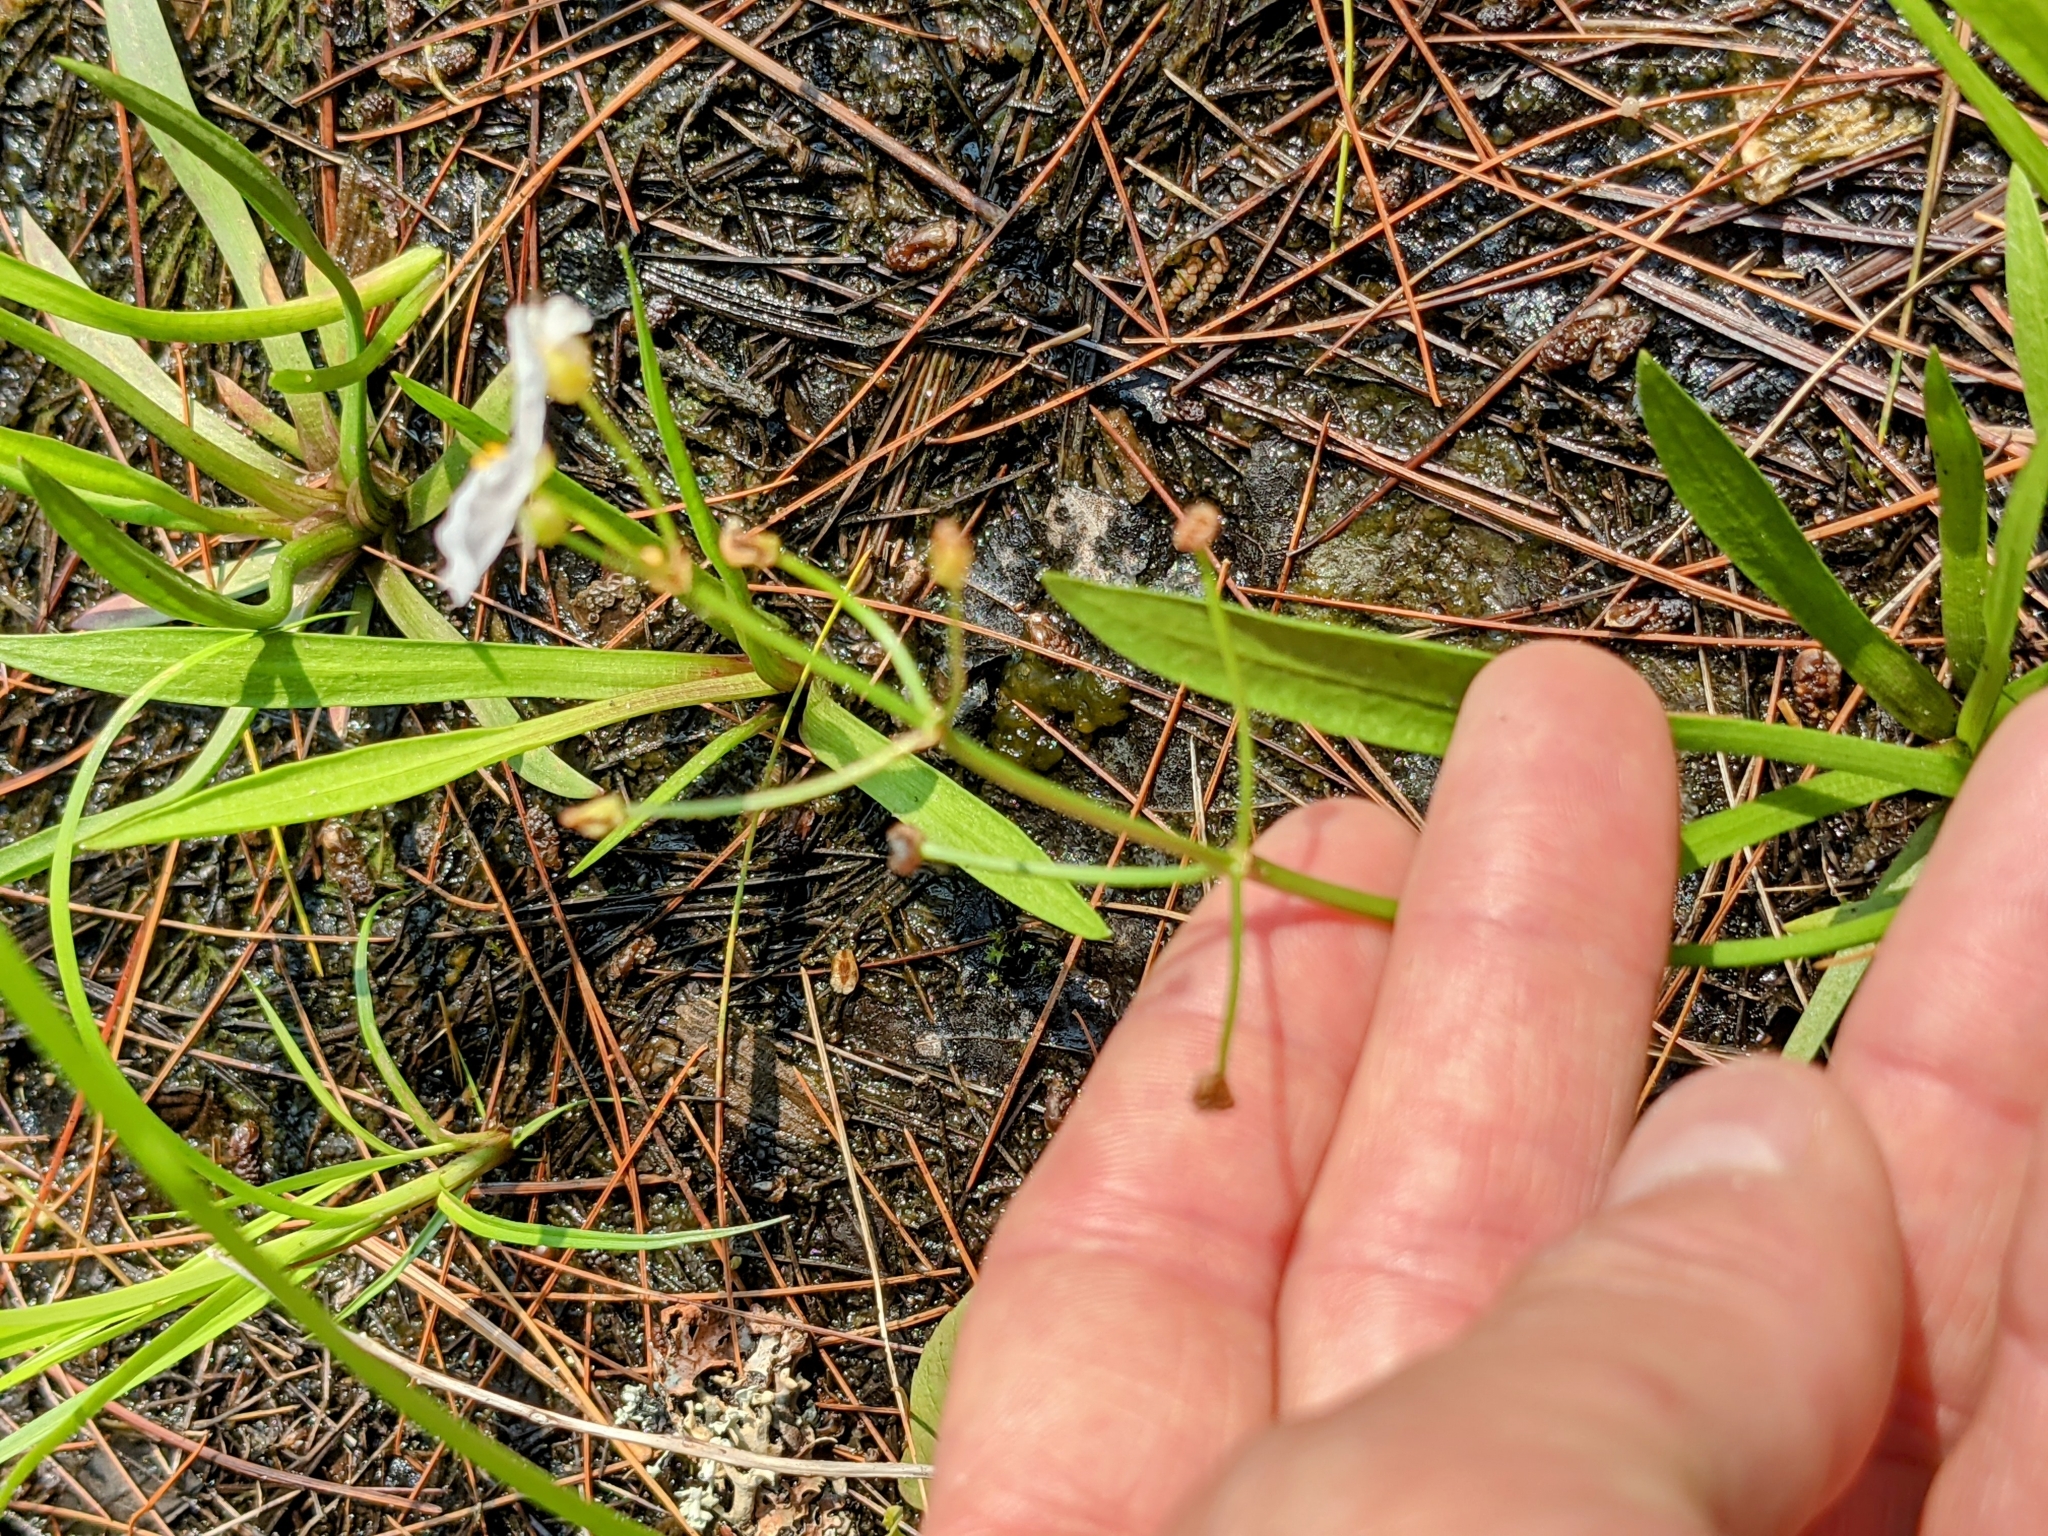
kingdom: Plantae
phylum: Tracheophyta
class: Liliopsida
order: Alismatales
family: Alismataceae
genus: Sagittaria
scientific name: Sagittaria graminea
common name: Grass-leaved arrowhead
